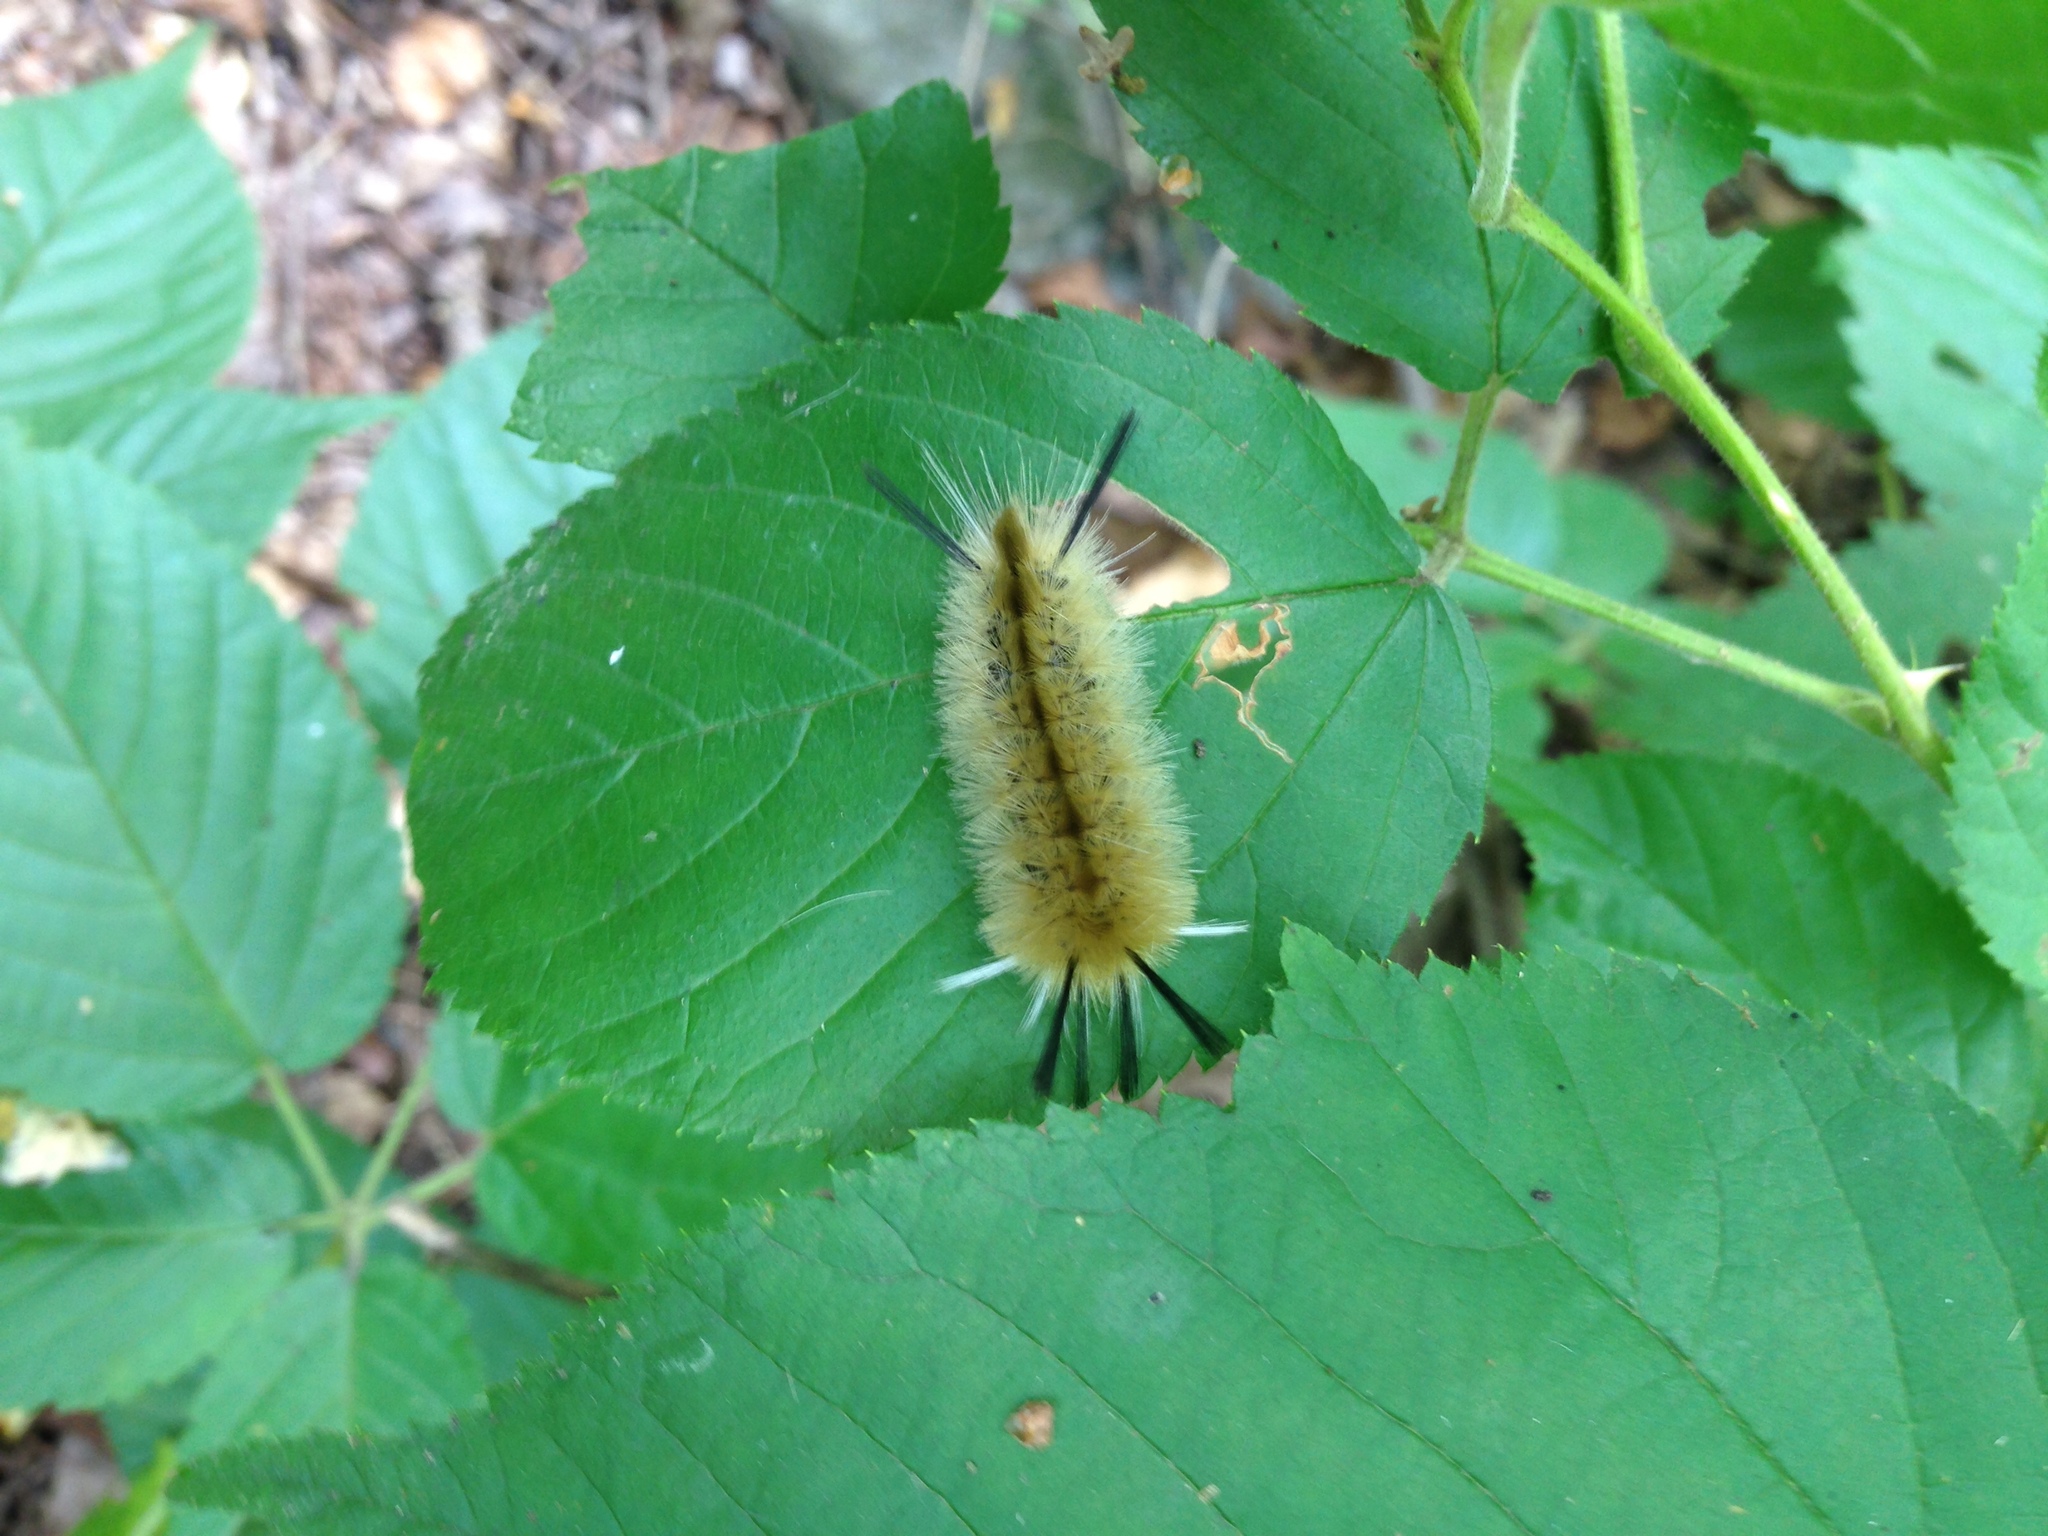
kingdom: Animalia
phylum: Arthropoda
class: Insecta
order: Lepidoptera
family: Erebidae
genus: Halysidota
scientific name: Halysidota tessellaris
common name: Banded tussock moth
